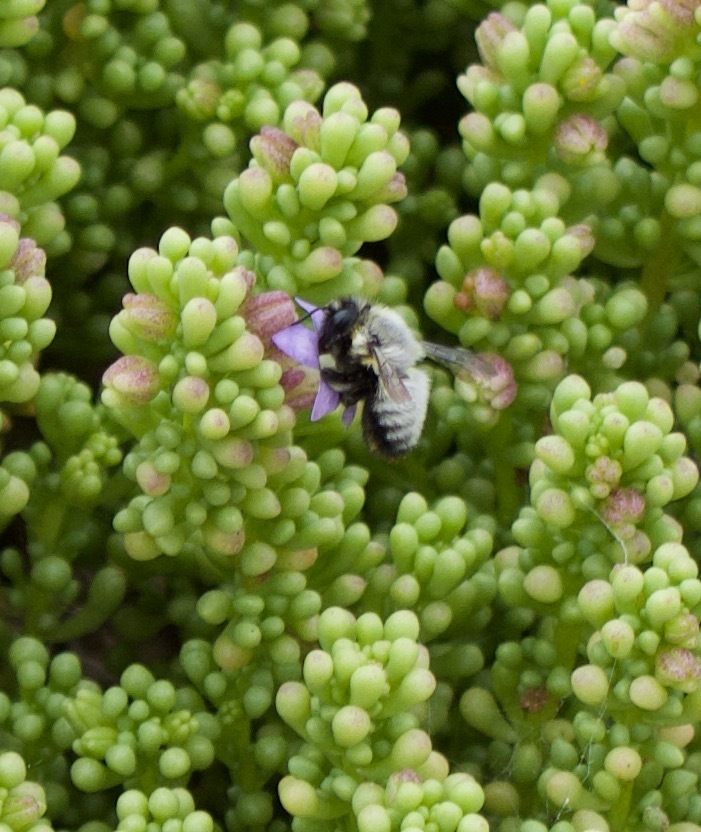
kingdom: Animalia
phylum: Arthropoda
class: Insecta
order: Hymenoptera
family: Megachilidae
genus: Megachile
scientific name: Megachile saulcyi
